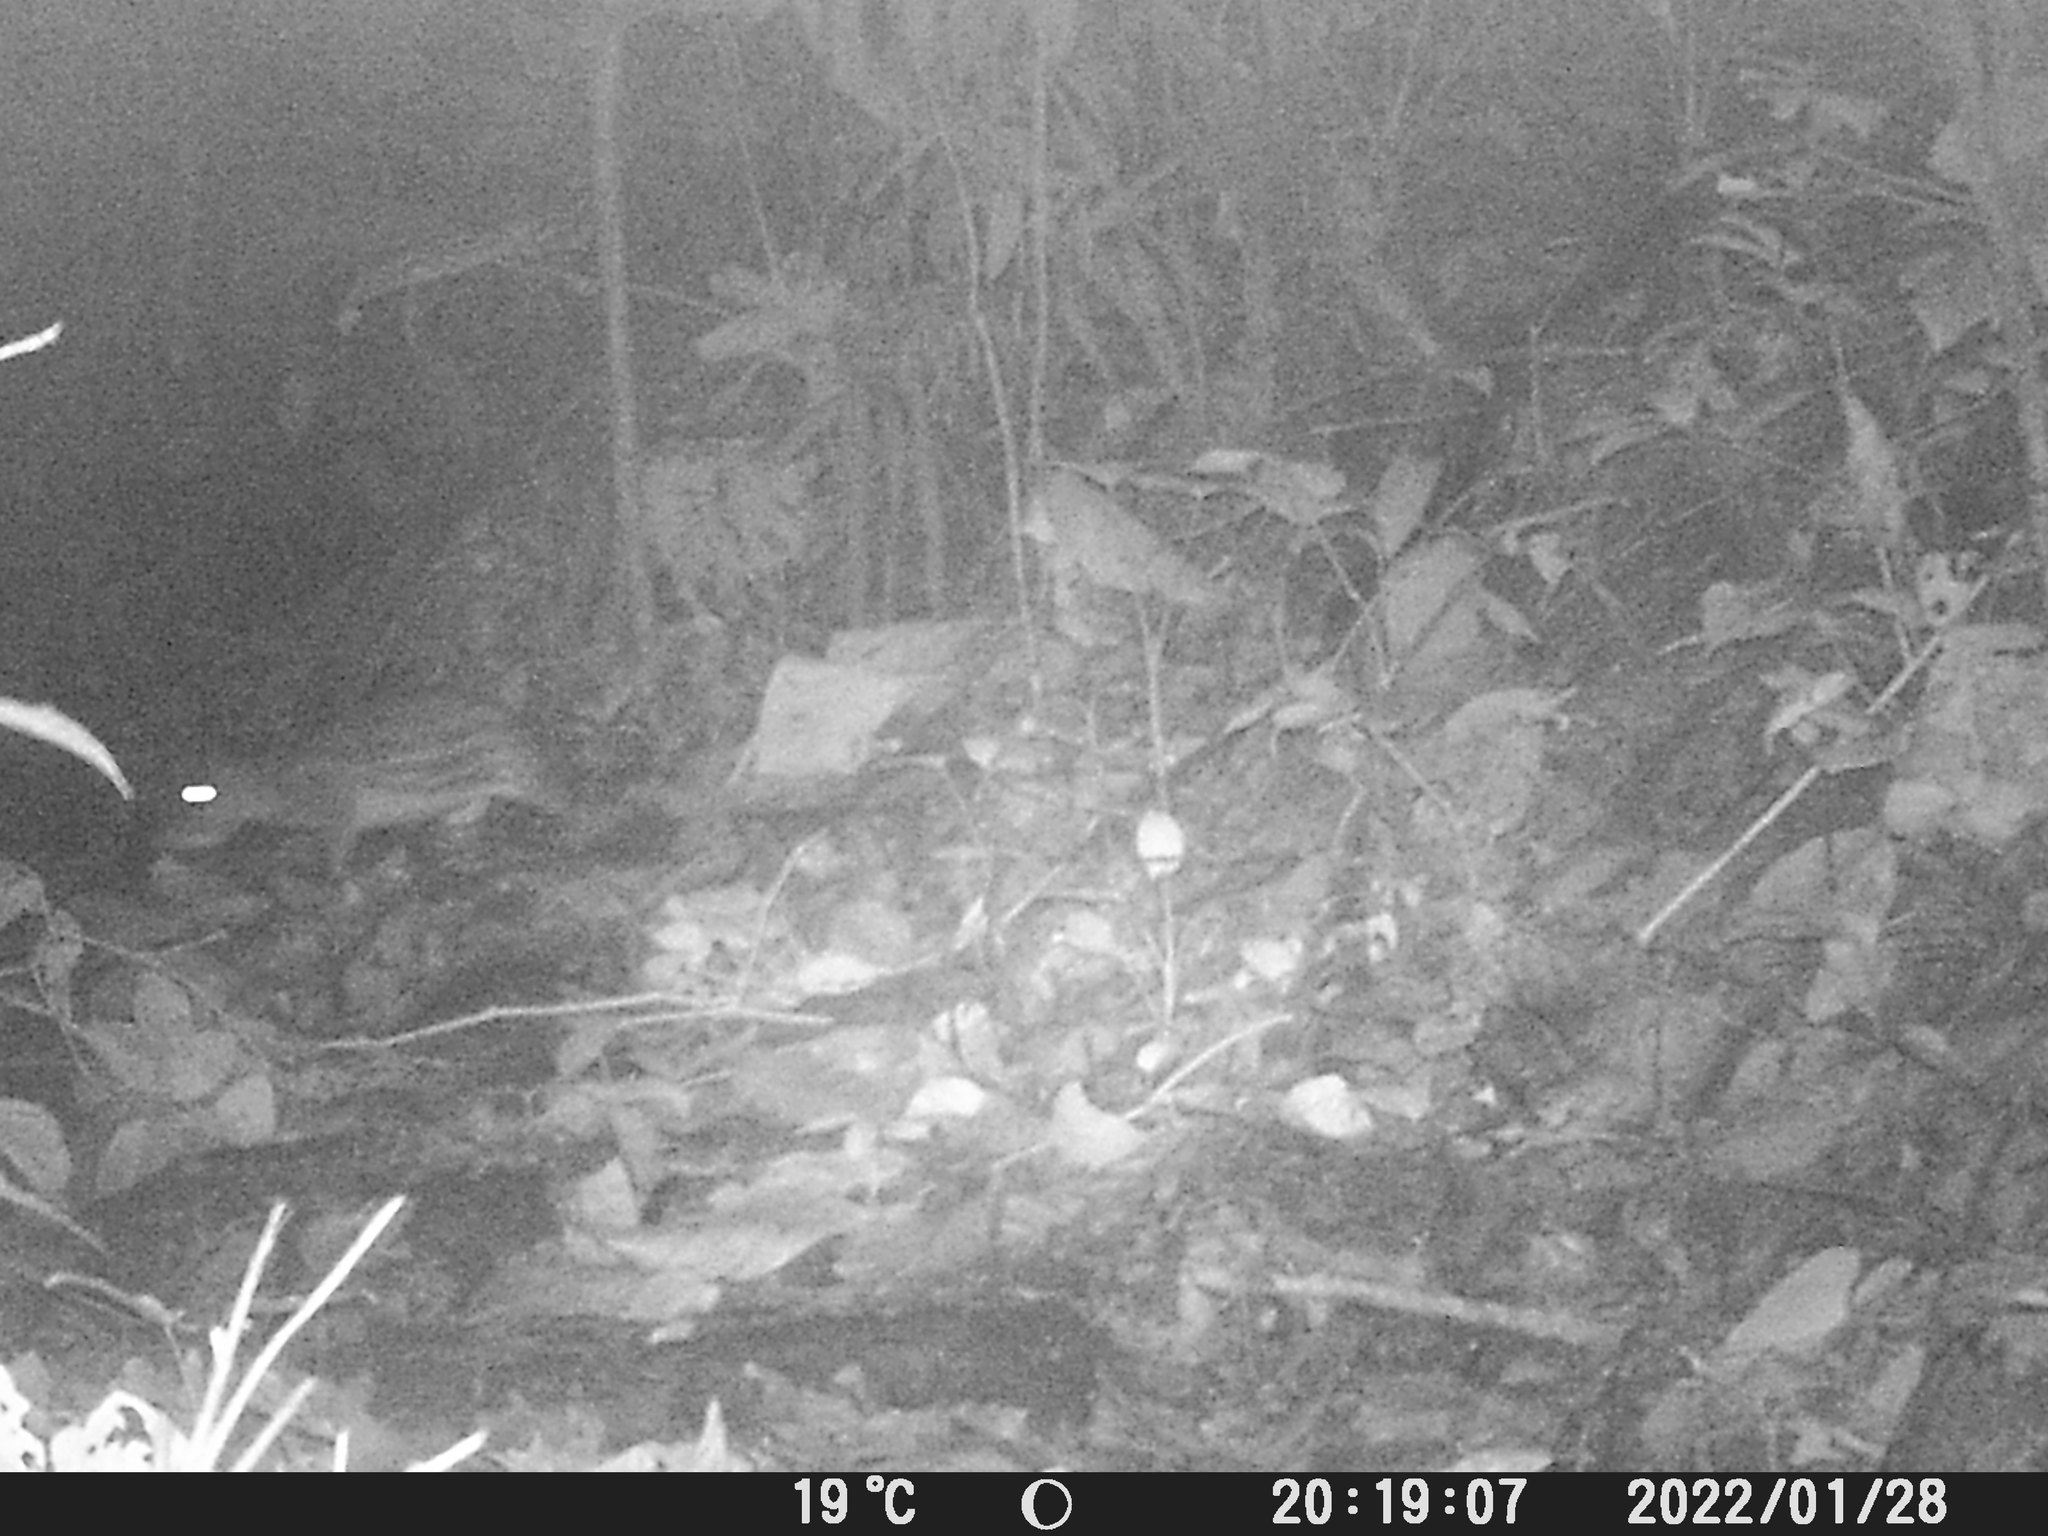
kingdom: Animalia
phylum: Chordata
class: Mammalia
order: Rodentia
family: Cuniculidae
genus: Cuniculus
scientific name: Cuniculus paca
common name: Lowland paca
